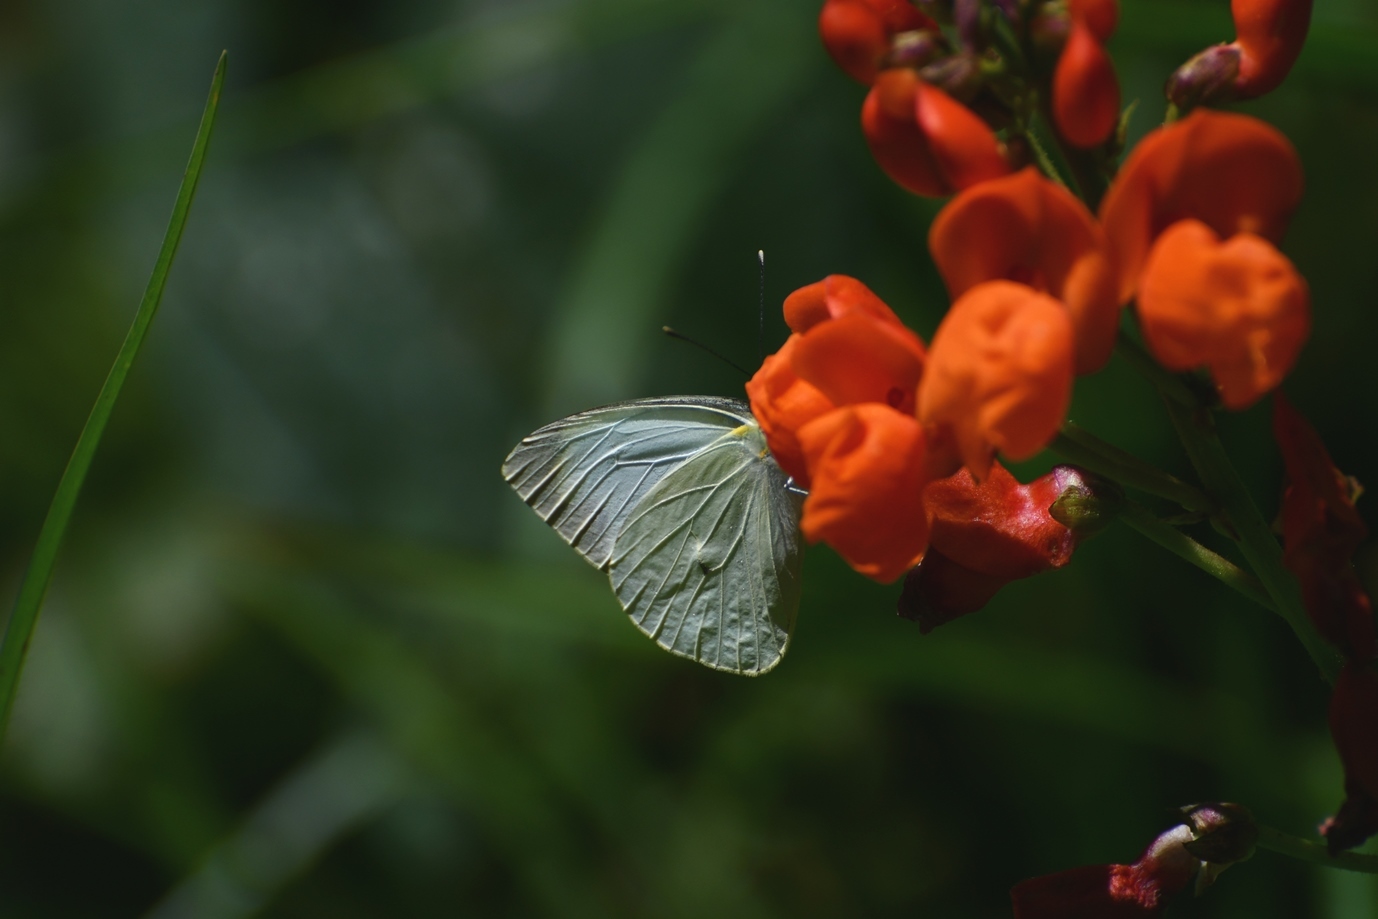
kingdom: Animalia
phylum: Arthropoda
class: Insecta
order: Lepidoptera
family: Pieridae
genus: Leptophobia
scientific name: Leptophobia aripa
